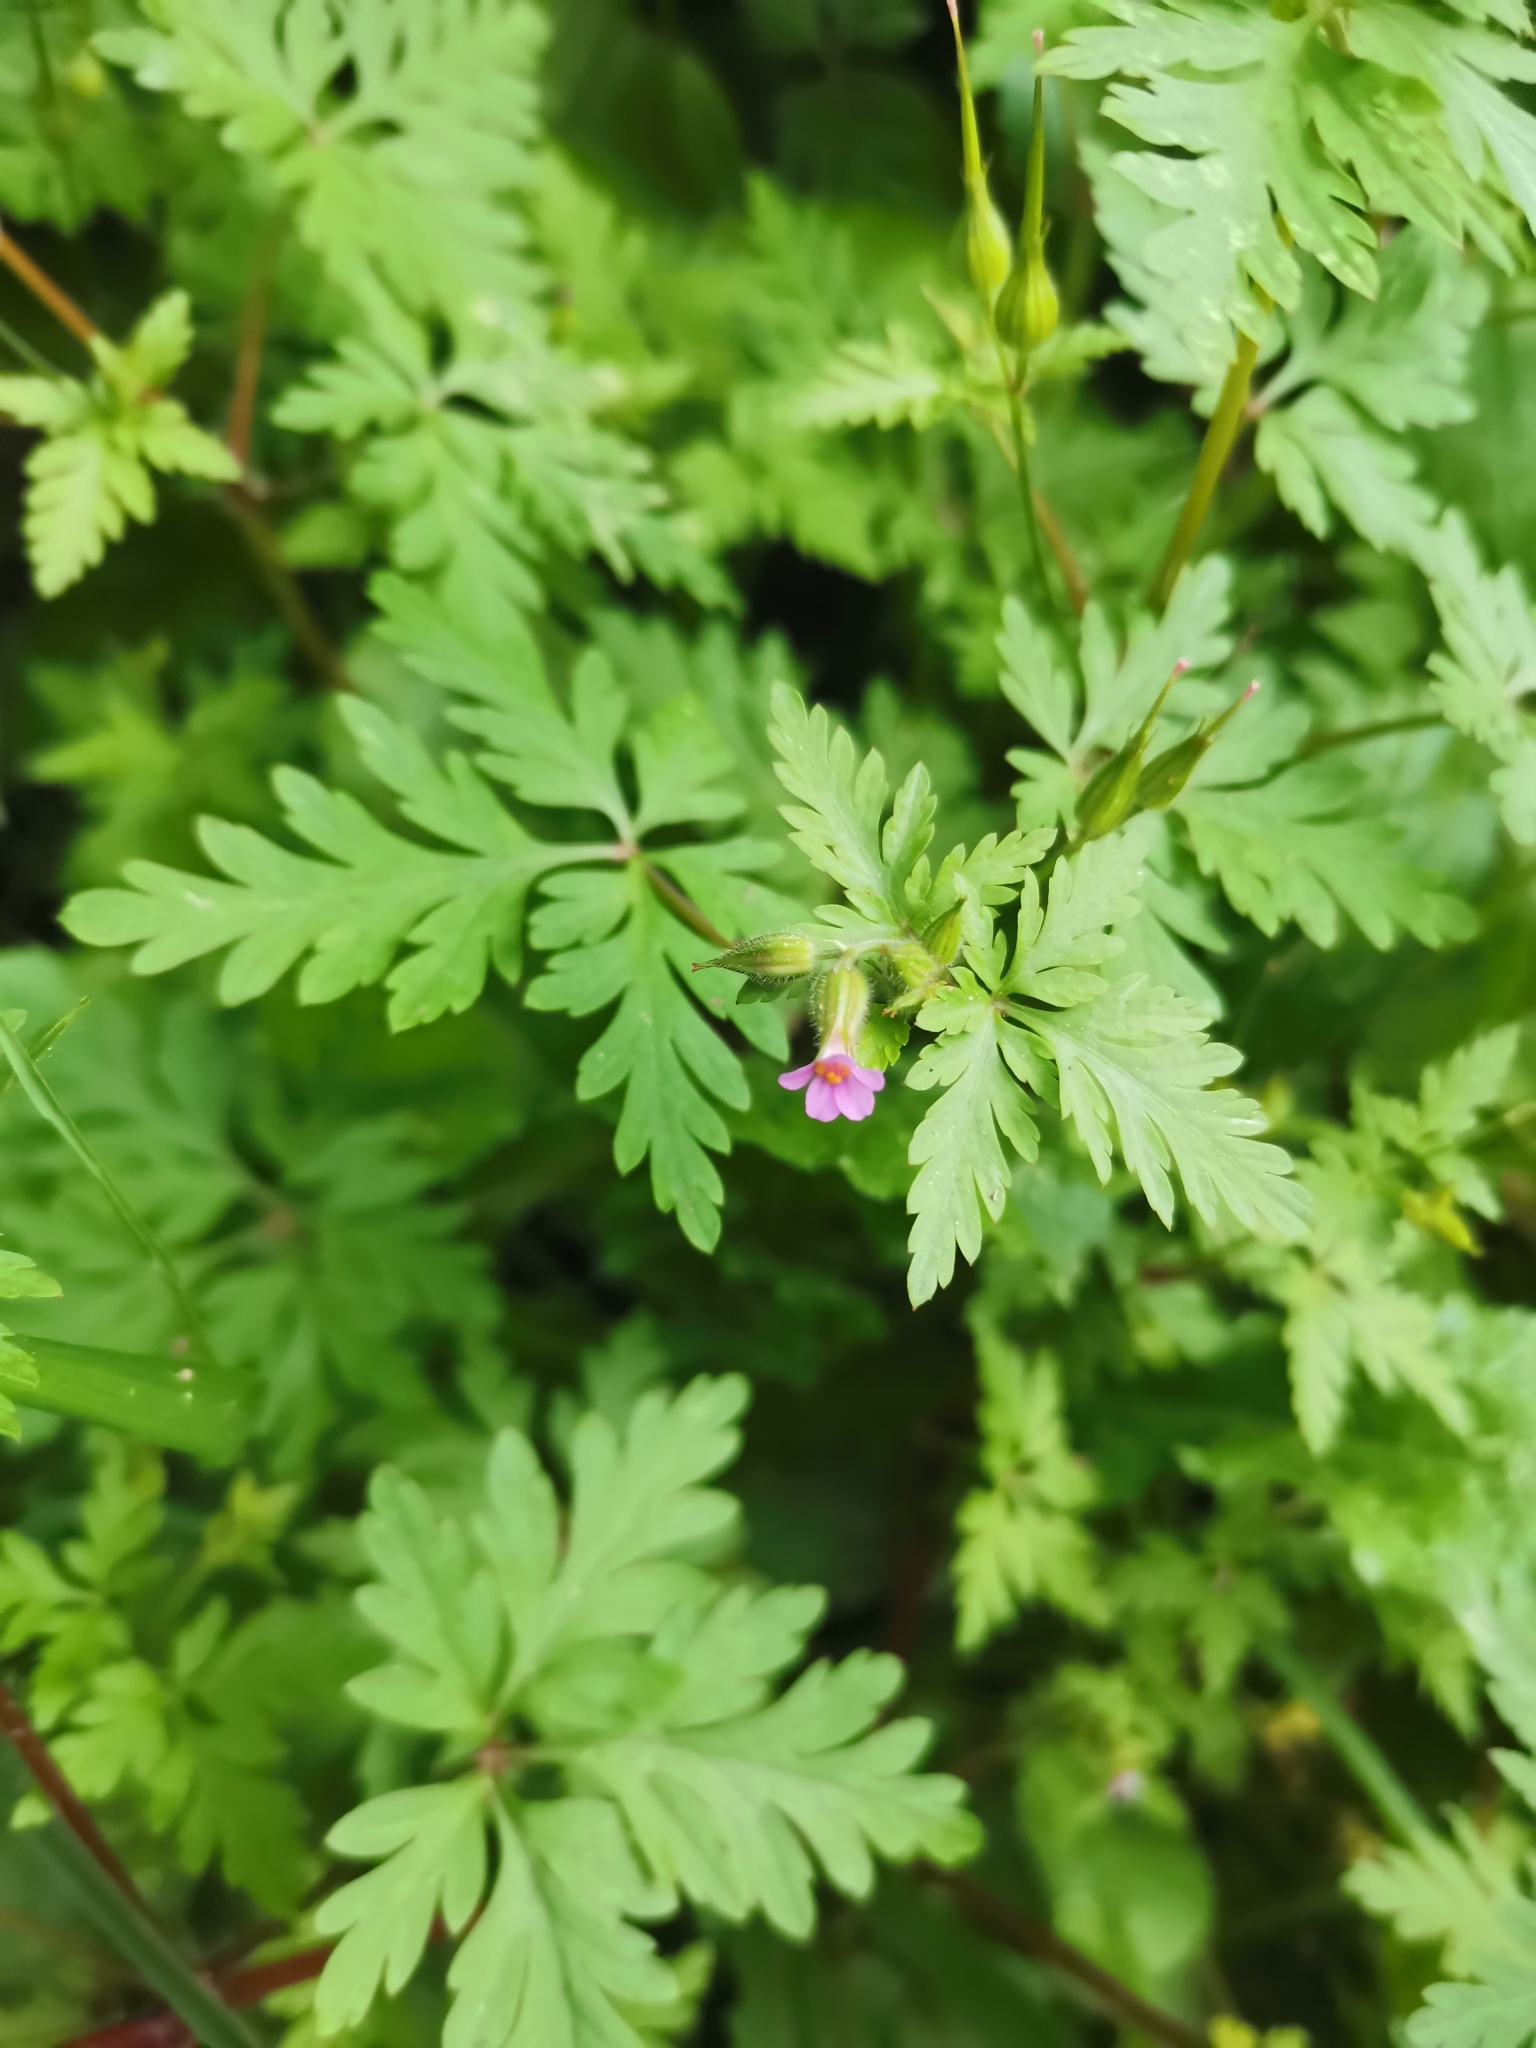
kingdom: Plantae
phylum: Tracheophyta
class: Magnoliopsida
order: Geraniales
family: Geraniaceae
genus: Geranium
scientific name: Geranium purpureum
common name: Little-robin
